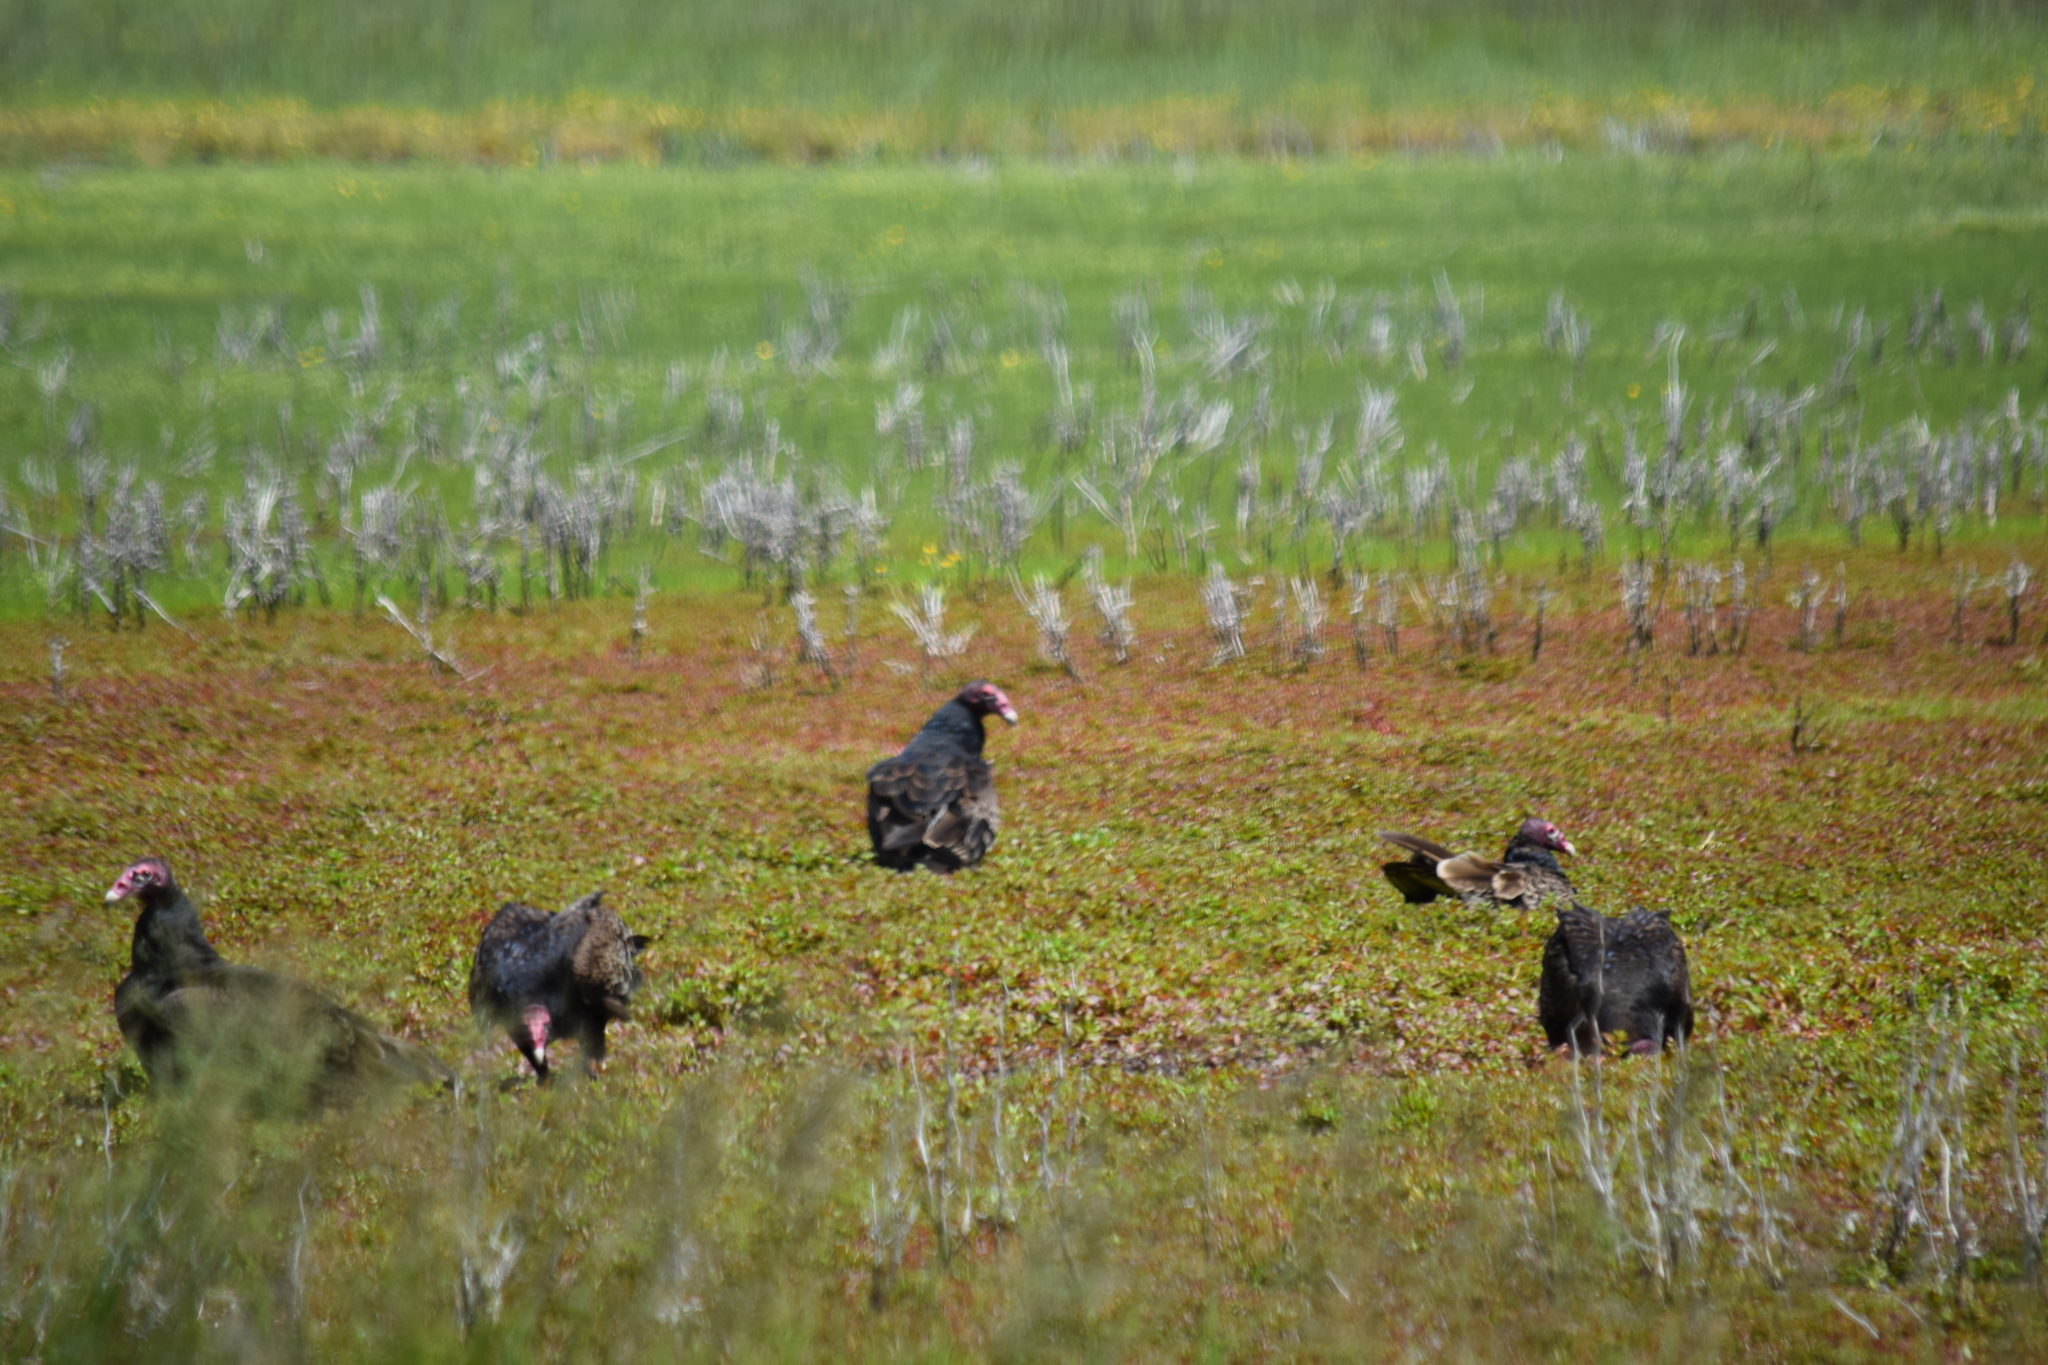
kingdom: Animalia
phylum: Chordata
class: Aves
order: Accipitriformes
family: Cathartidae
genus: Cathartes
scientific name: Cathartes aura
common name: Turkey vulture
